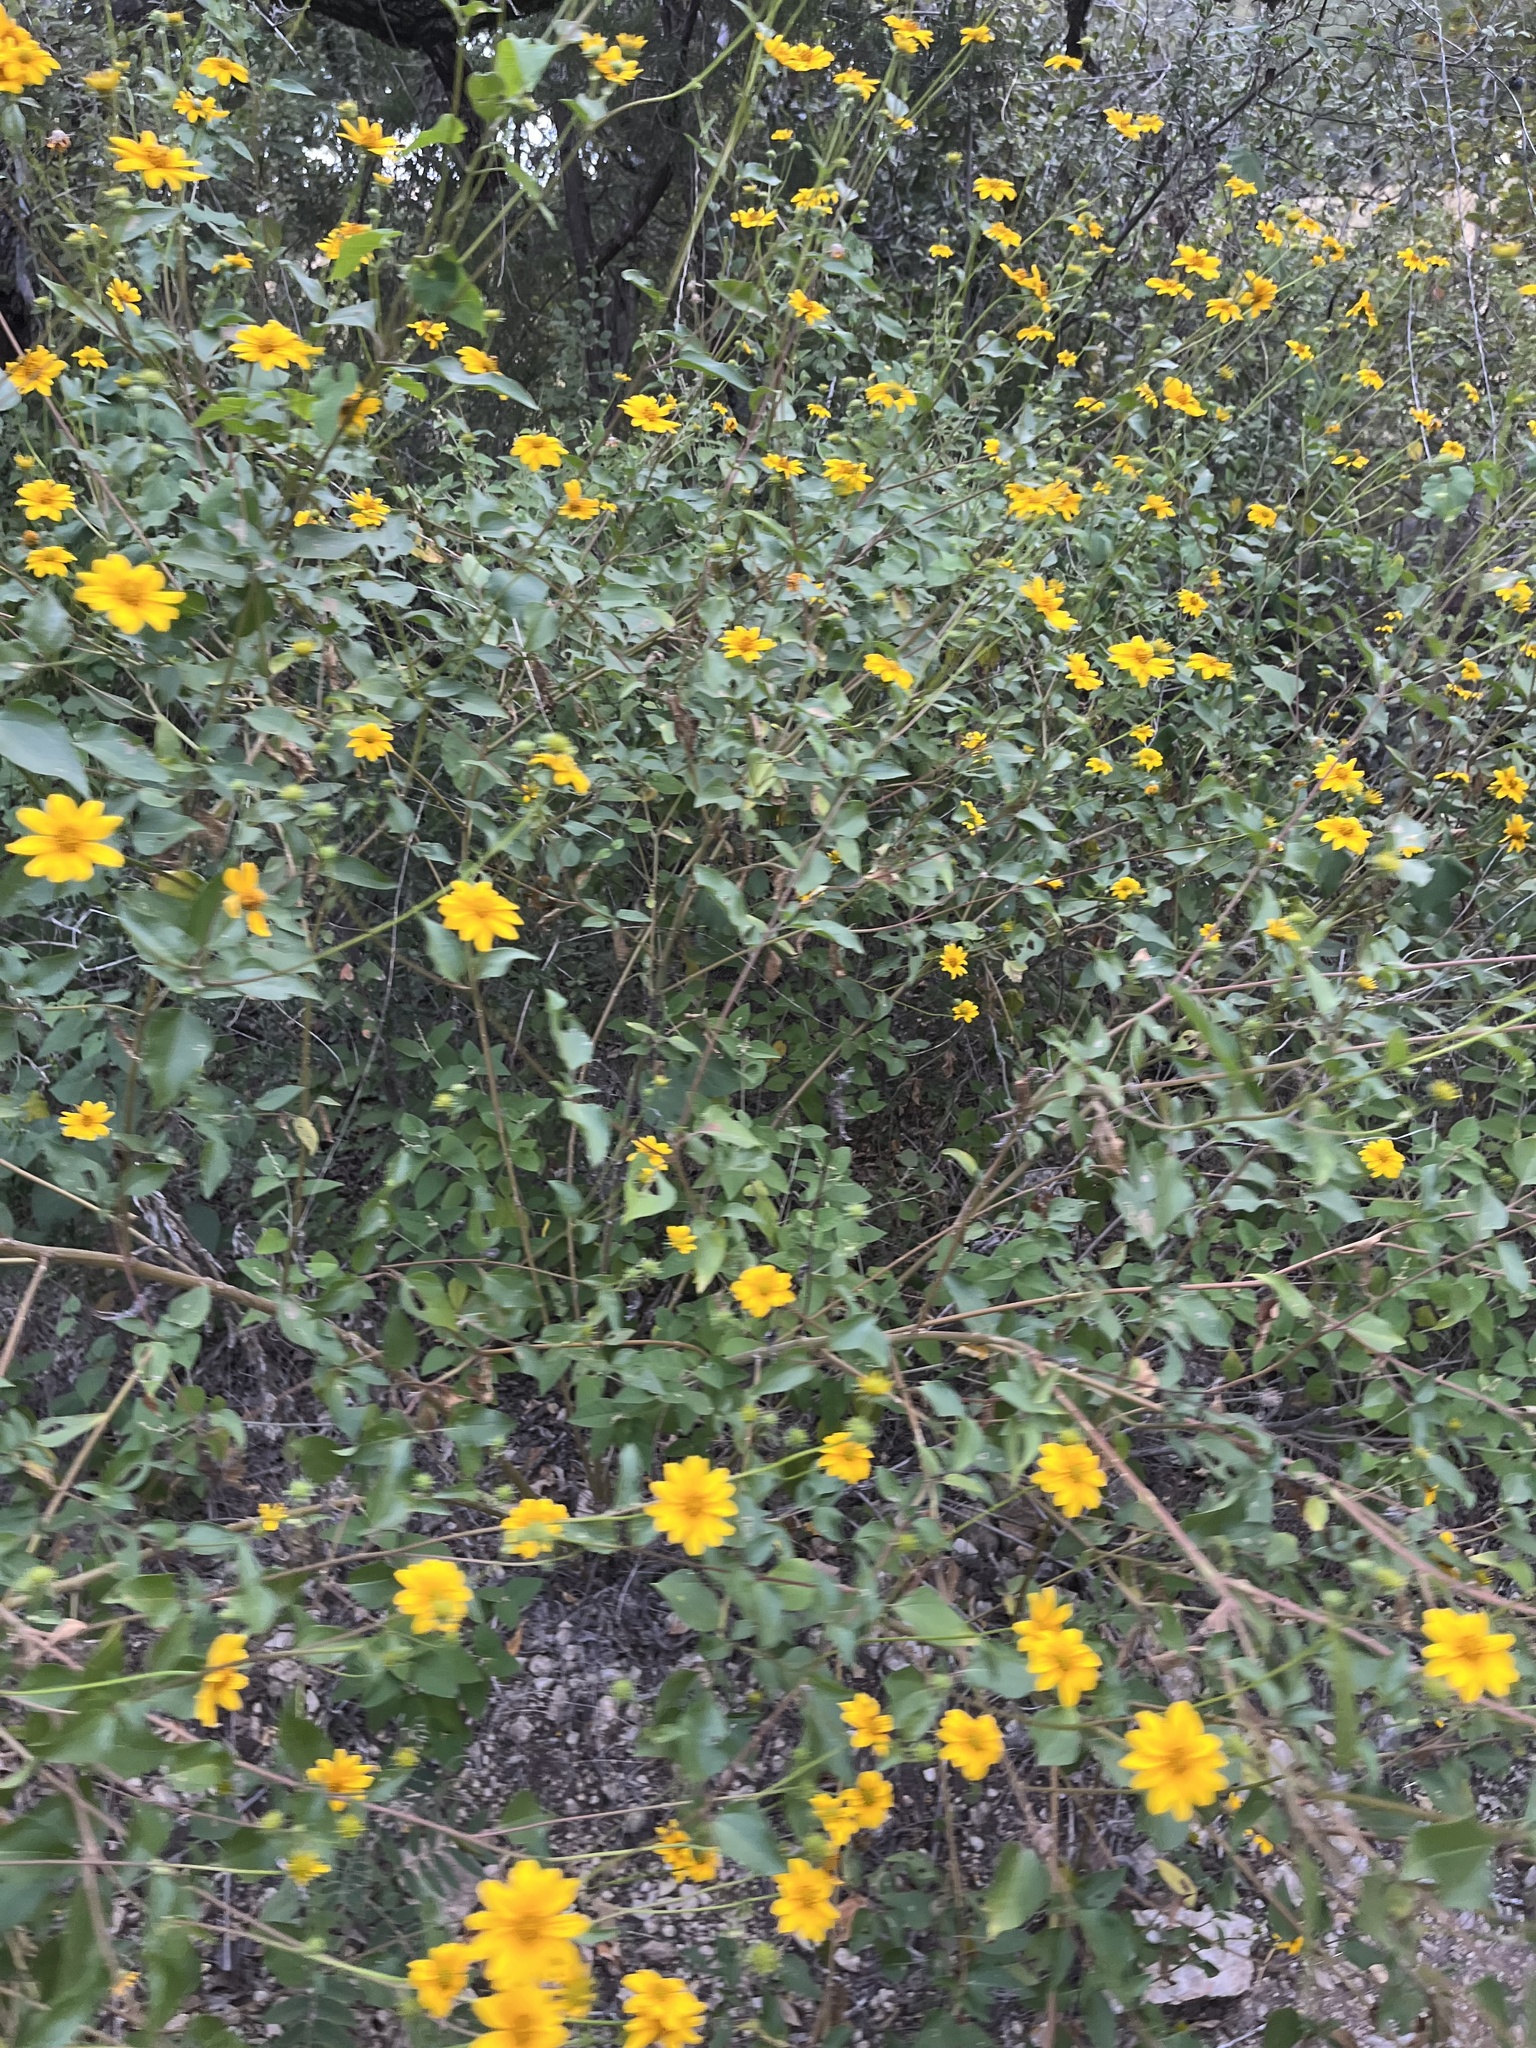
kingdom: Plantae
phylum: Tracheophyta
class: Magnoliopsida
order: Asterales
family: Asteraceae
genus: Viguiera
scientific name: Viguiera dentata
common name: Toothleaf
